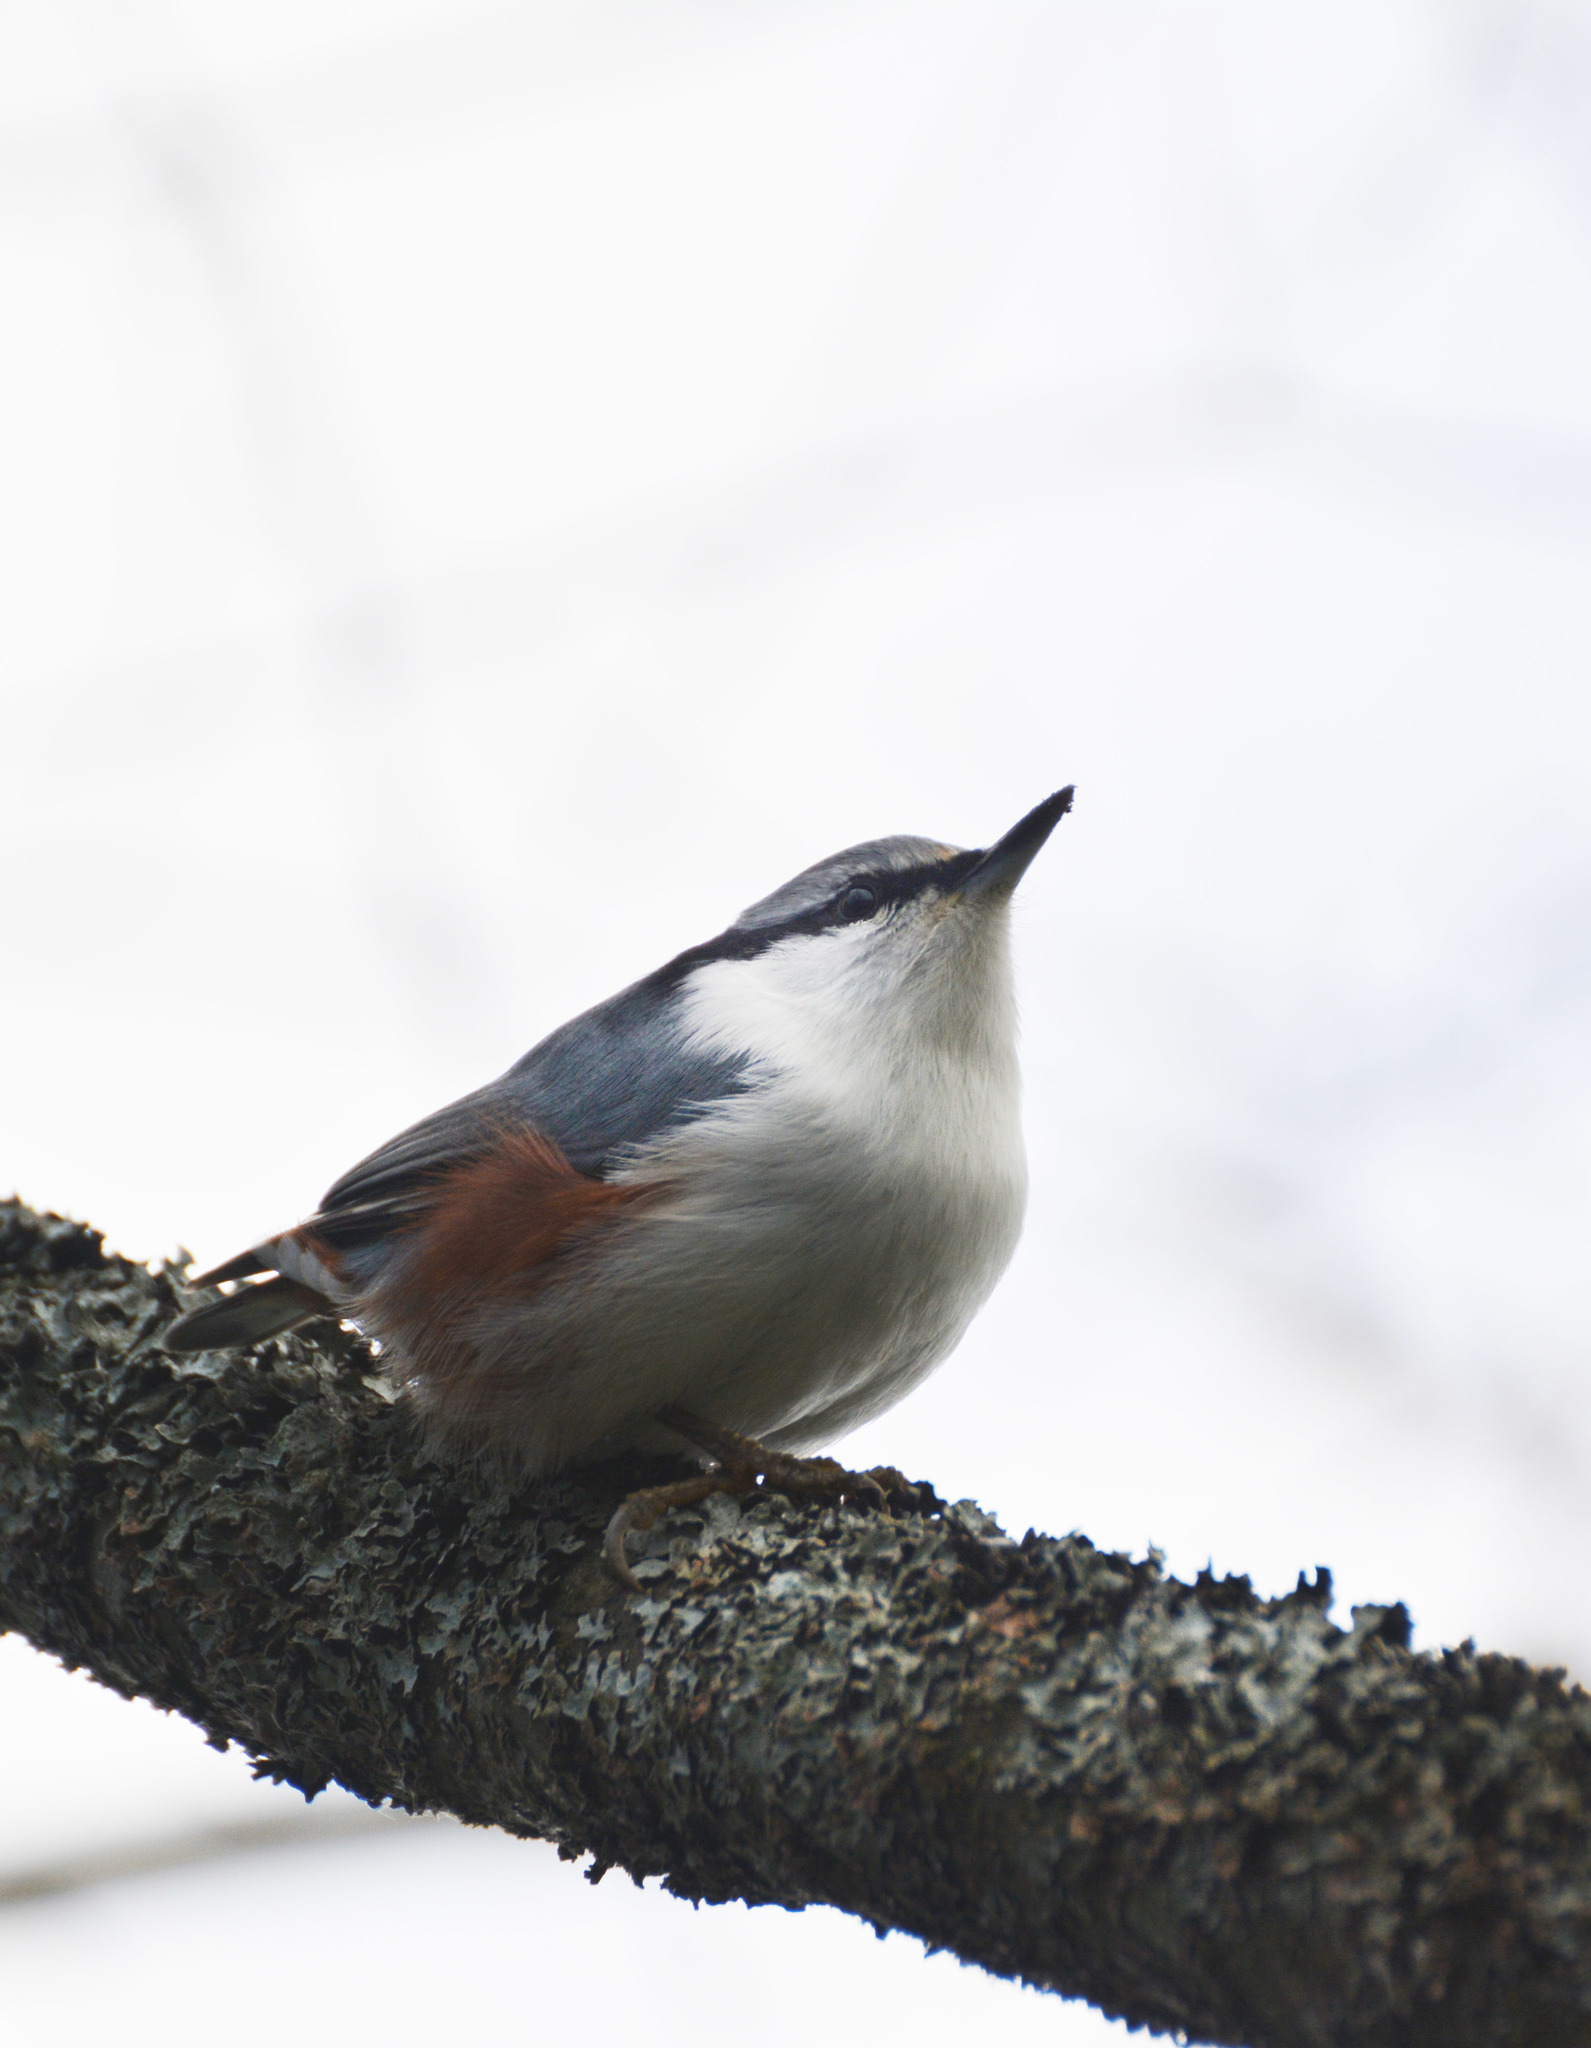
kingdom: Animalia
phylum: Chordata
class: Aves
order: Passeriformes
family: Sittidae
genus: Sitta
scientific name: Sitta europaea
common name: Eurasian nuthatch
